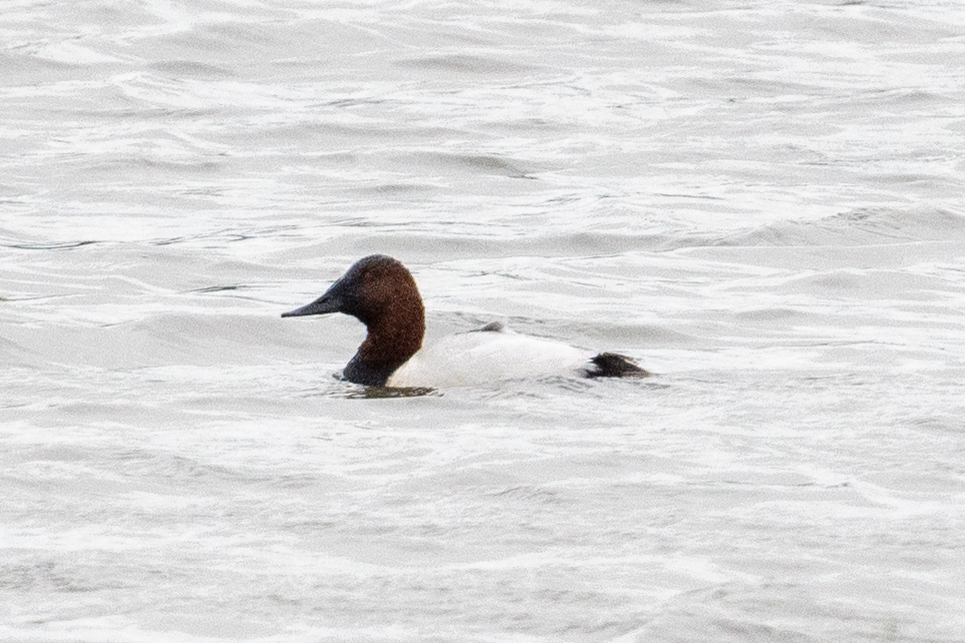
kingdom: Animalia
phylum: Chordata
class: Aves
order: Anseriformes
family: Anatidae
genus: Aythya
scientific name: Aythya valisineria
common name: Canvasback
